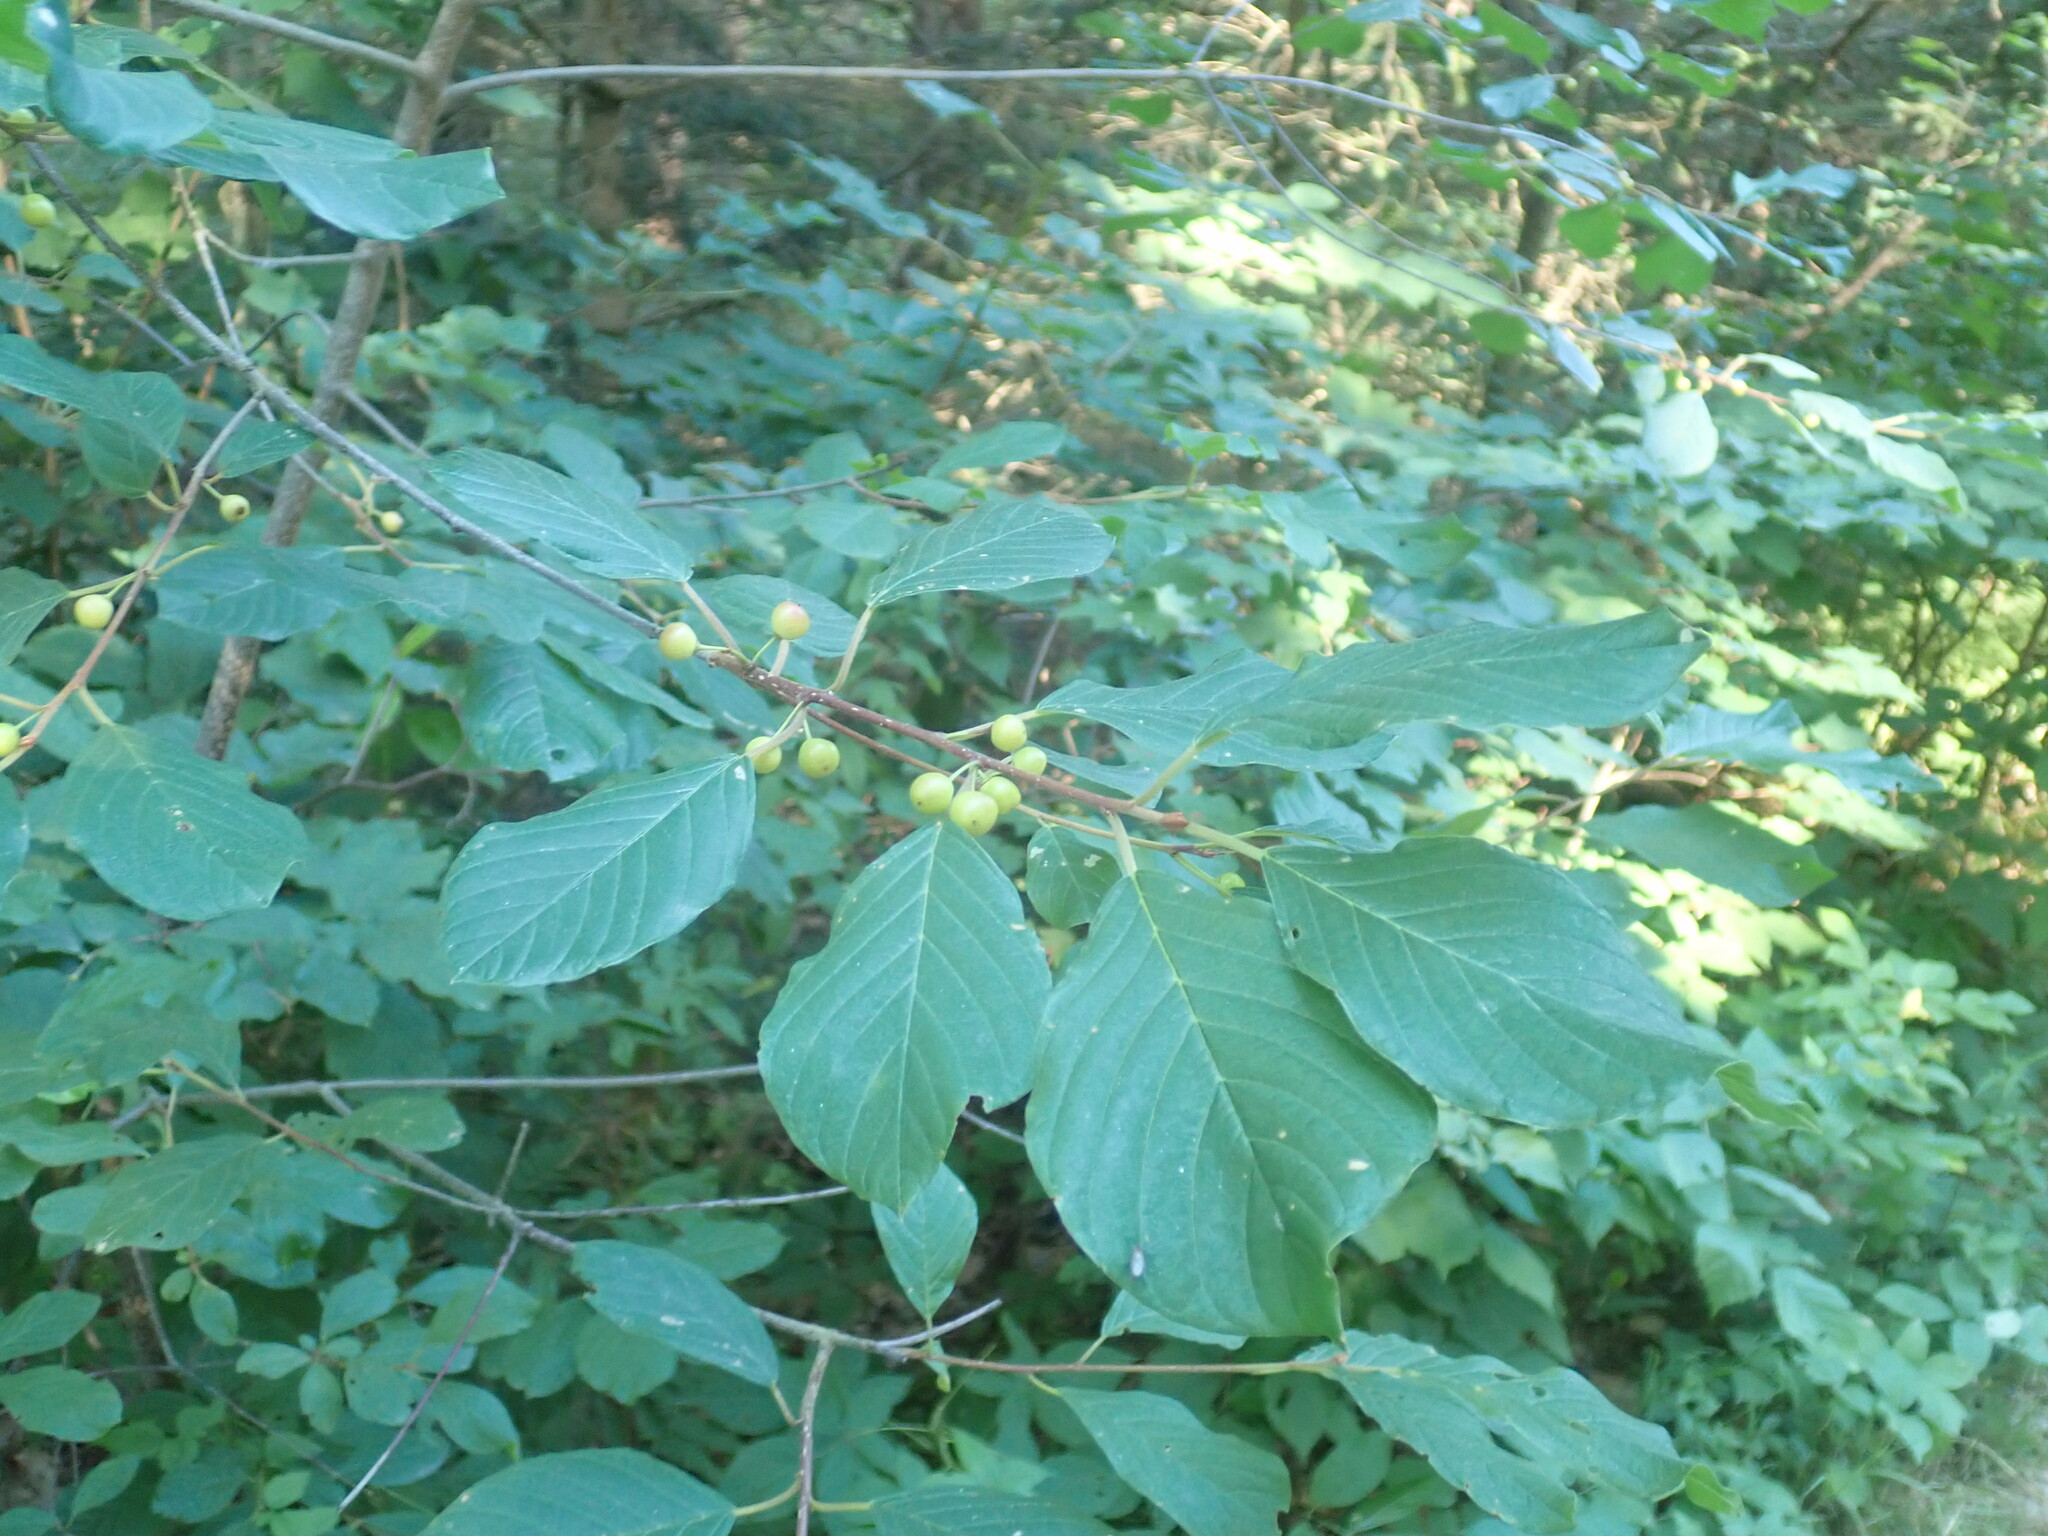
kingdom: Plantae
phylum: Tracheophyta
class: Magnoliopsida
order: Rosales
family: Rhamnaceae
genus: Frangula
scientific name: Frangula alnus
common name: Alder buckthorn
